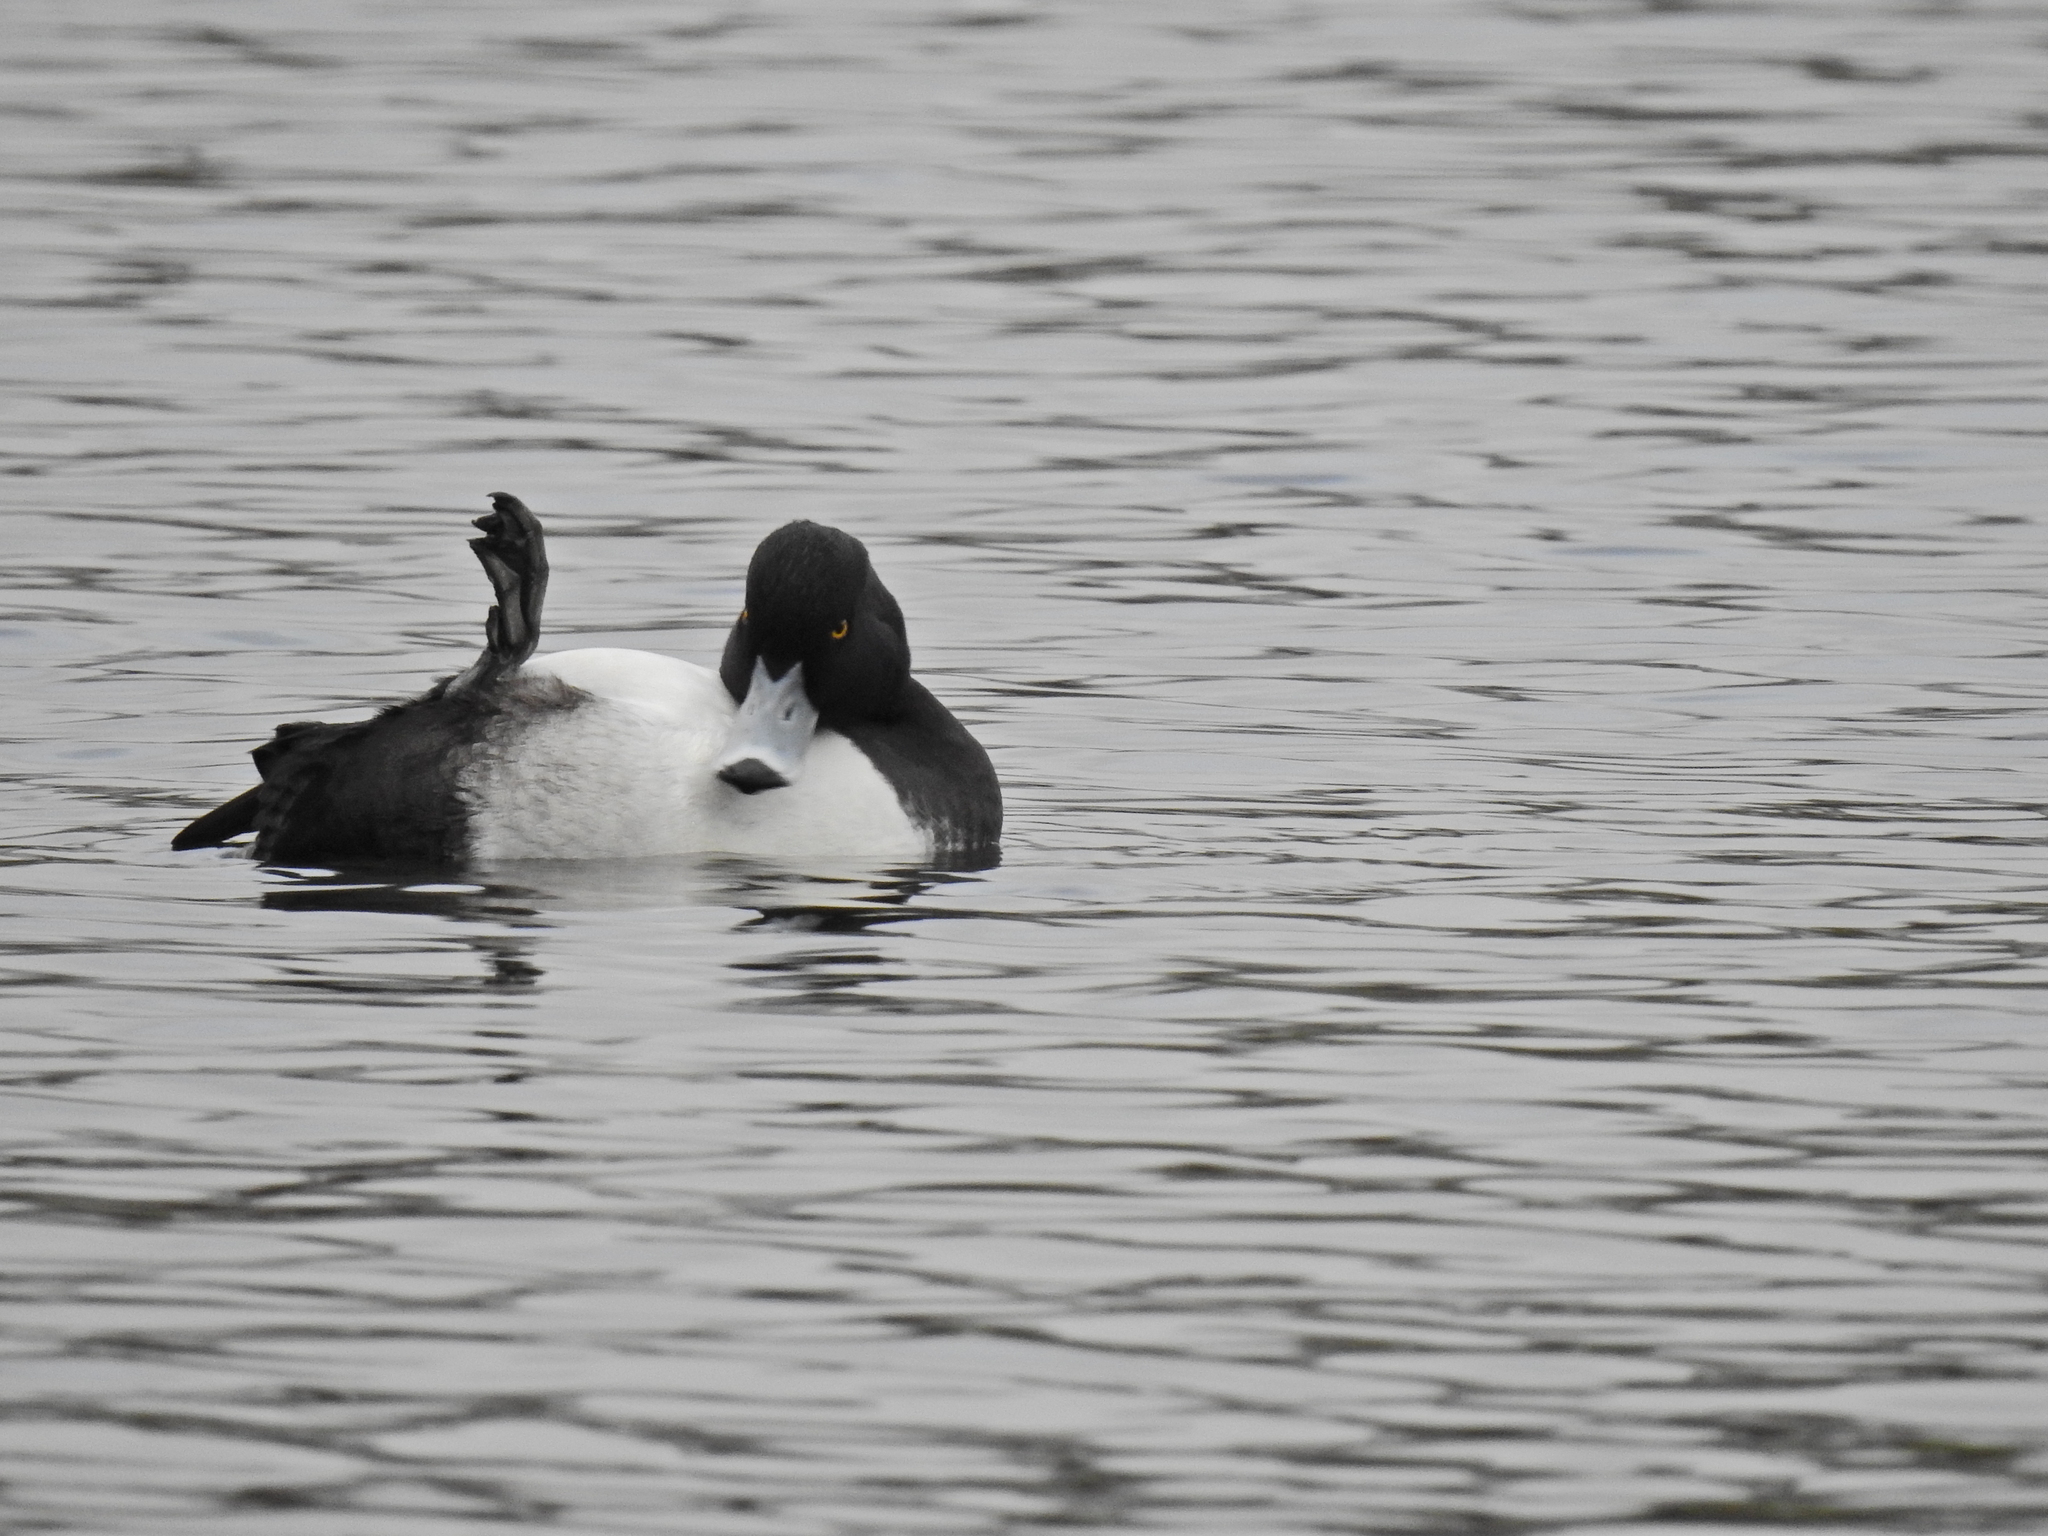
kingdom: Animalia
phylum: Chordata
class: Aves
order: Anseriformes
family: Anatidae
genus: Aythya
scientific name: Aythya fuligula
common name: Tufted duck
